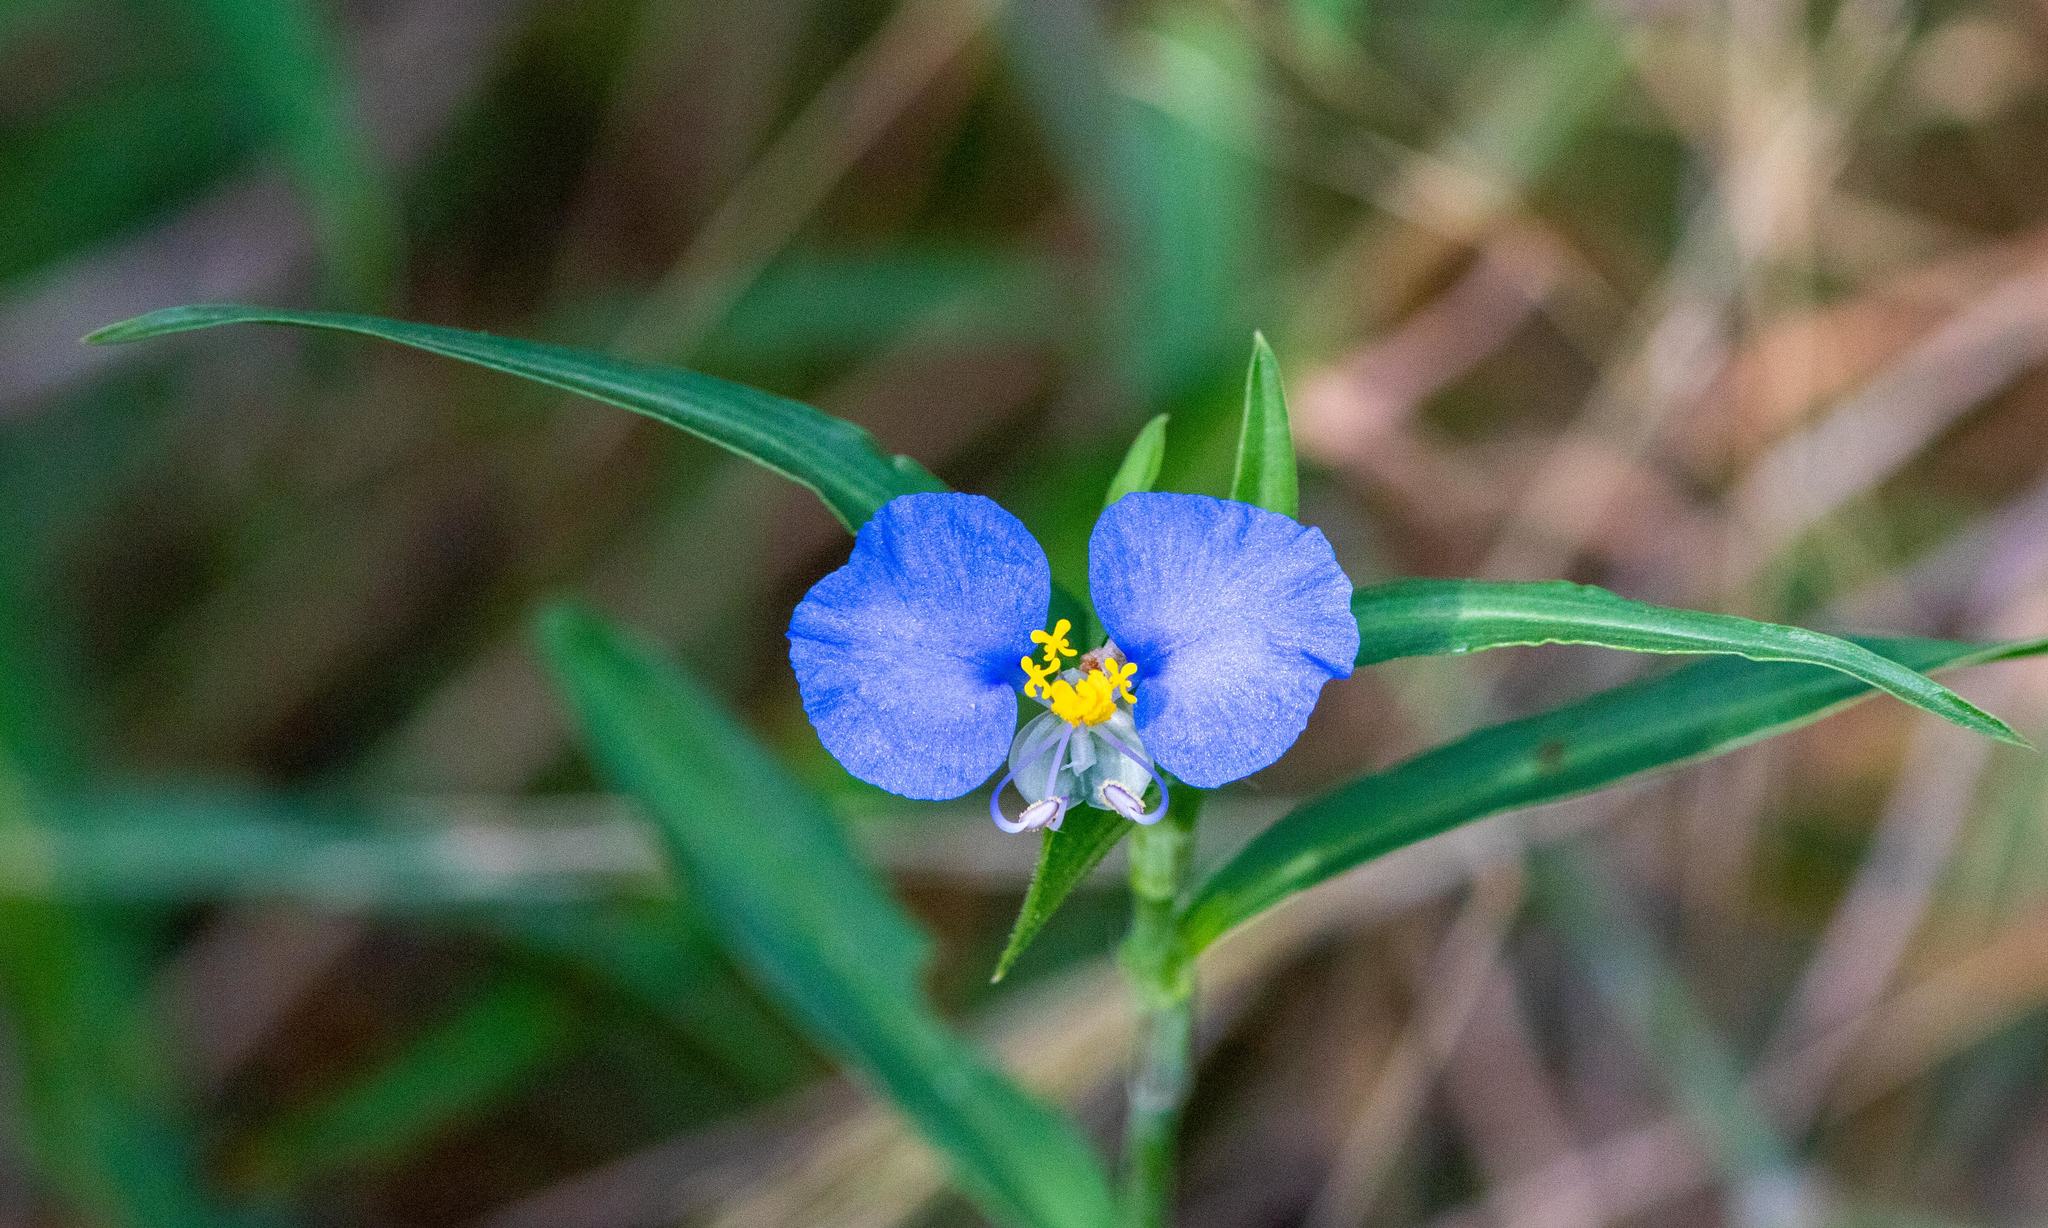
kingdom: Plantae
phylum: Tracheophyta
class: Liliopsida
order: Commelinales
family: Commelinaceae
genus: Commelina
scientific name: Commelina erecta
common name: Blousel blommetjie
